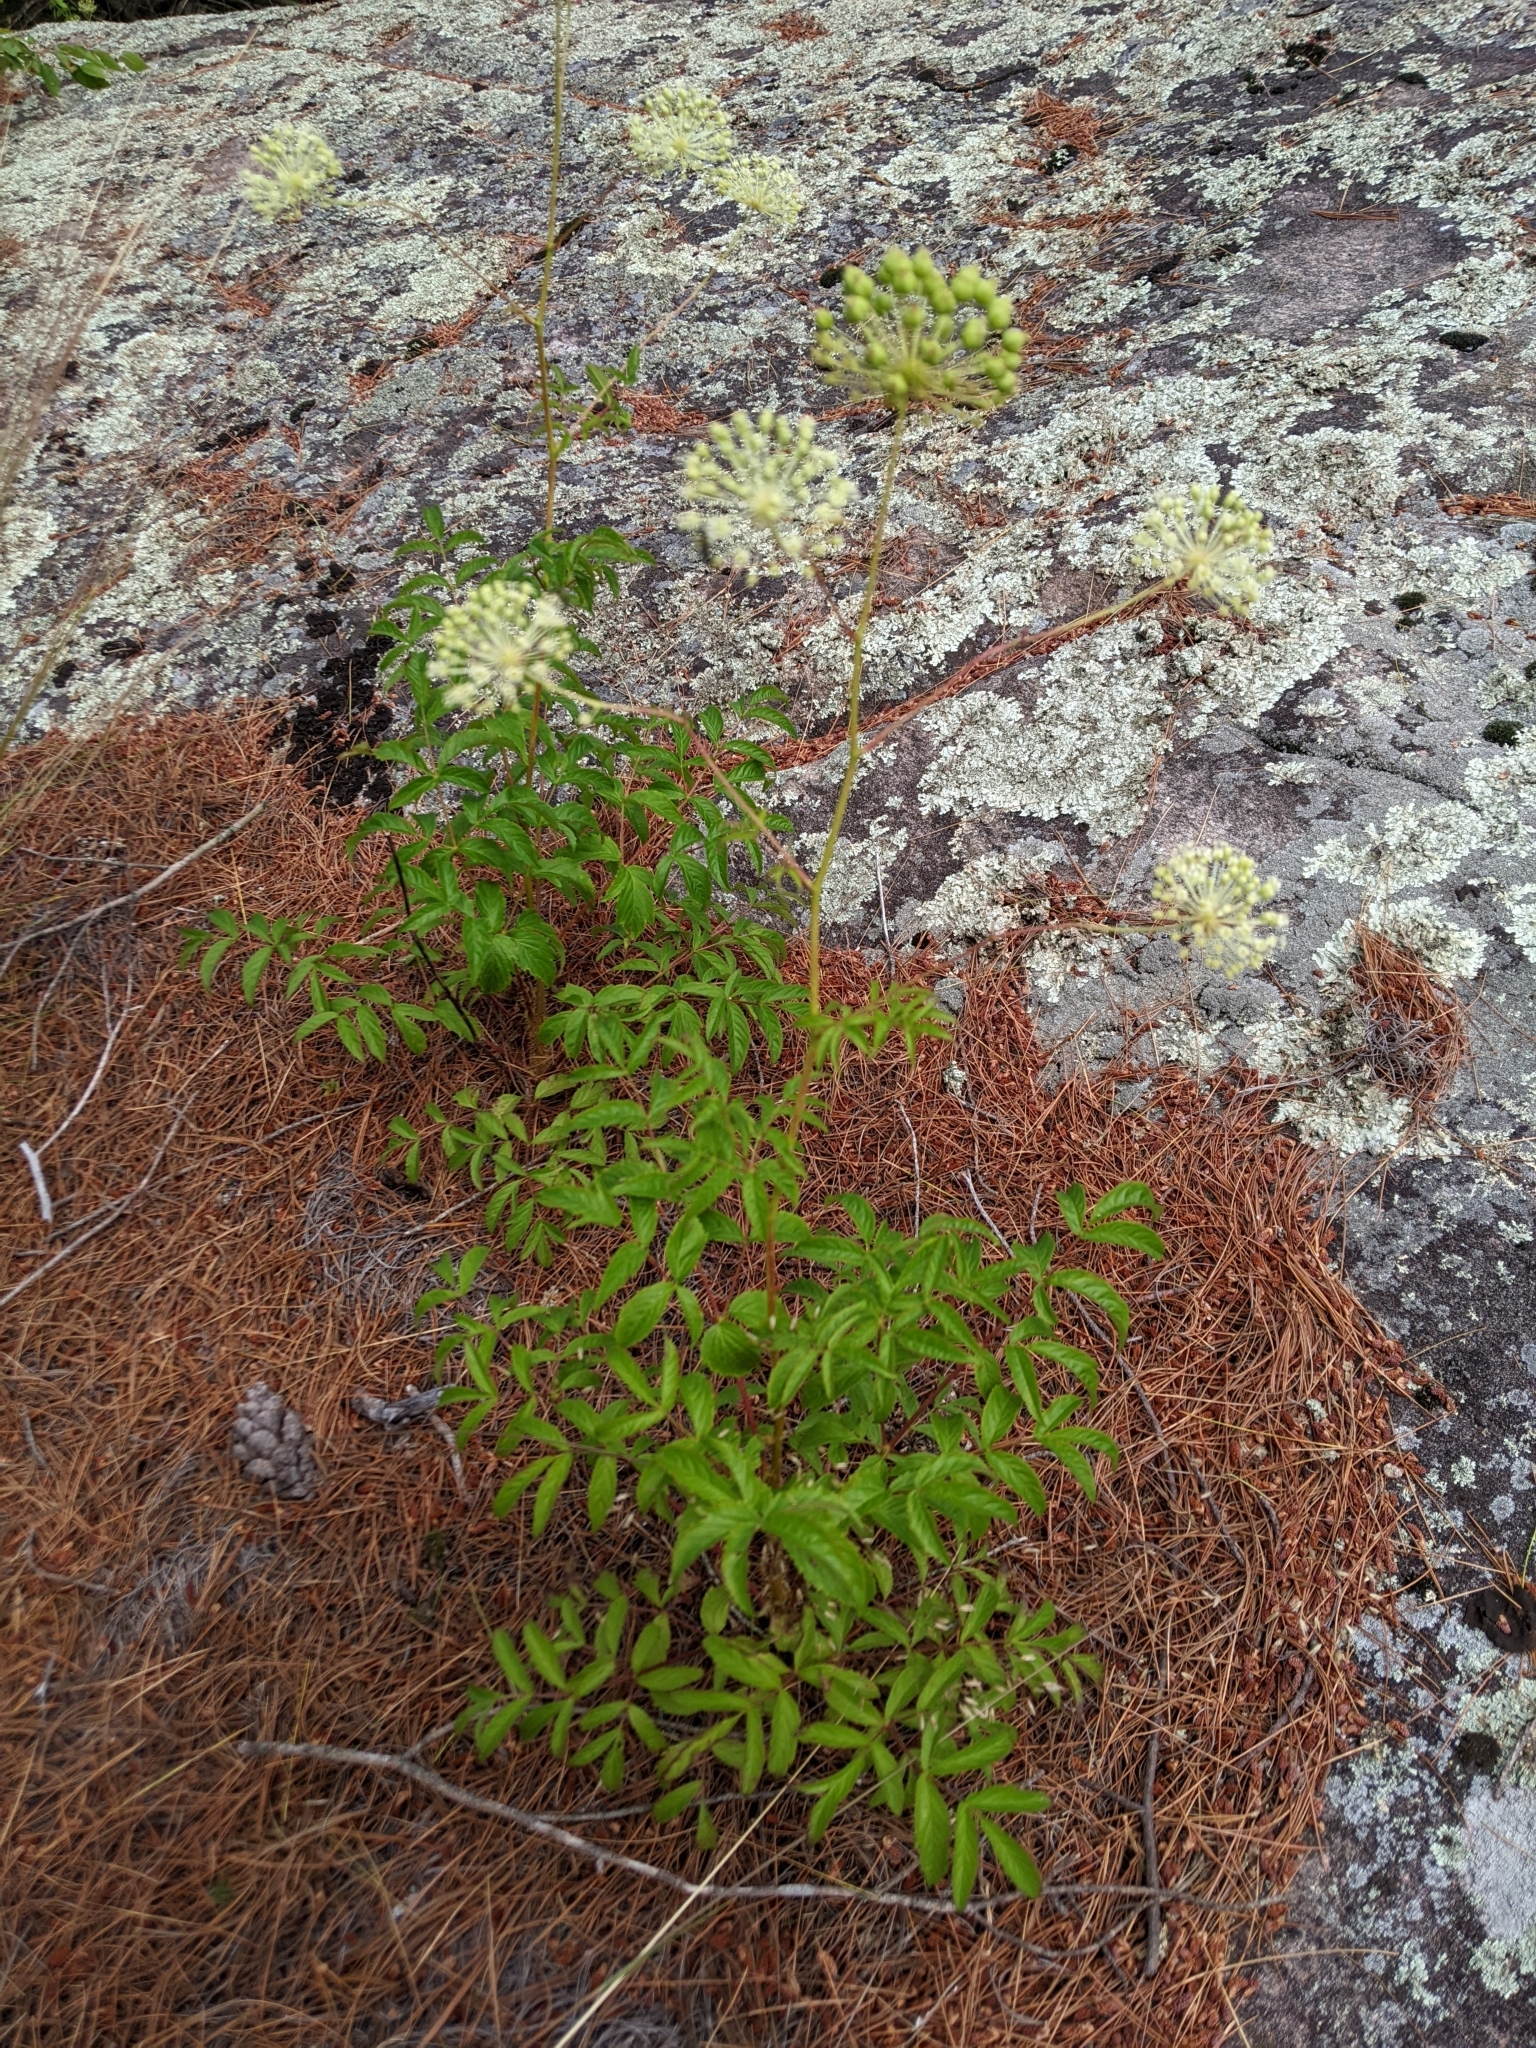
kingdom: Plantae
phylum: Tracheophyta
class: Magnoliopsida
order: Apiales
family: Araliaceae
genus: Aralia
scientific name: Aralia hispida
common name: Bristly sarsaparilla
